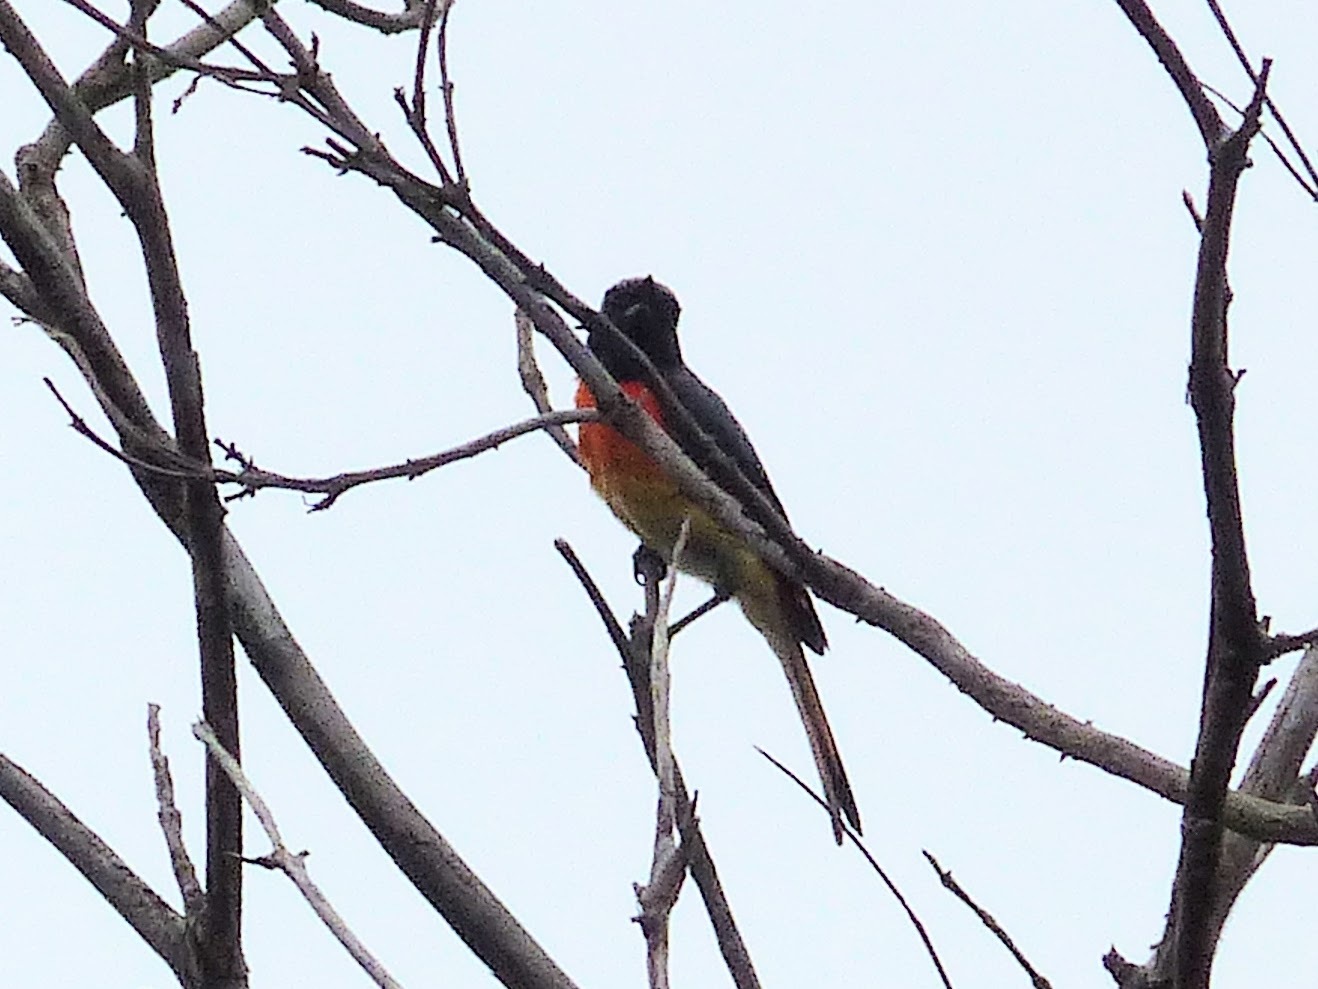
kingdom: Animalia
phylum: Chordata
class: Aves
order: Passeriformes
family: Campephagidae
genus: Pericrocotus
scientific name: Pericrocotus cinnamomeus
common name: Small minivet
